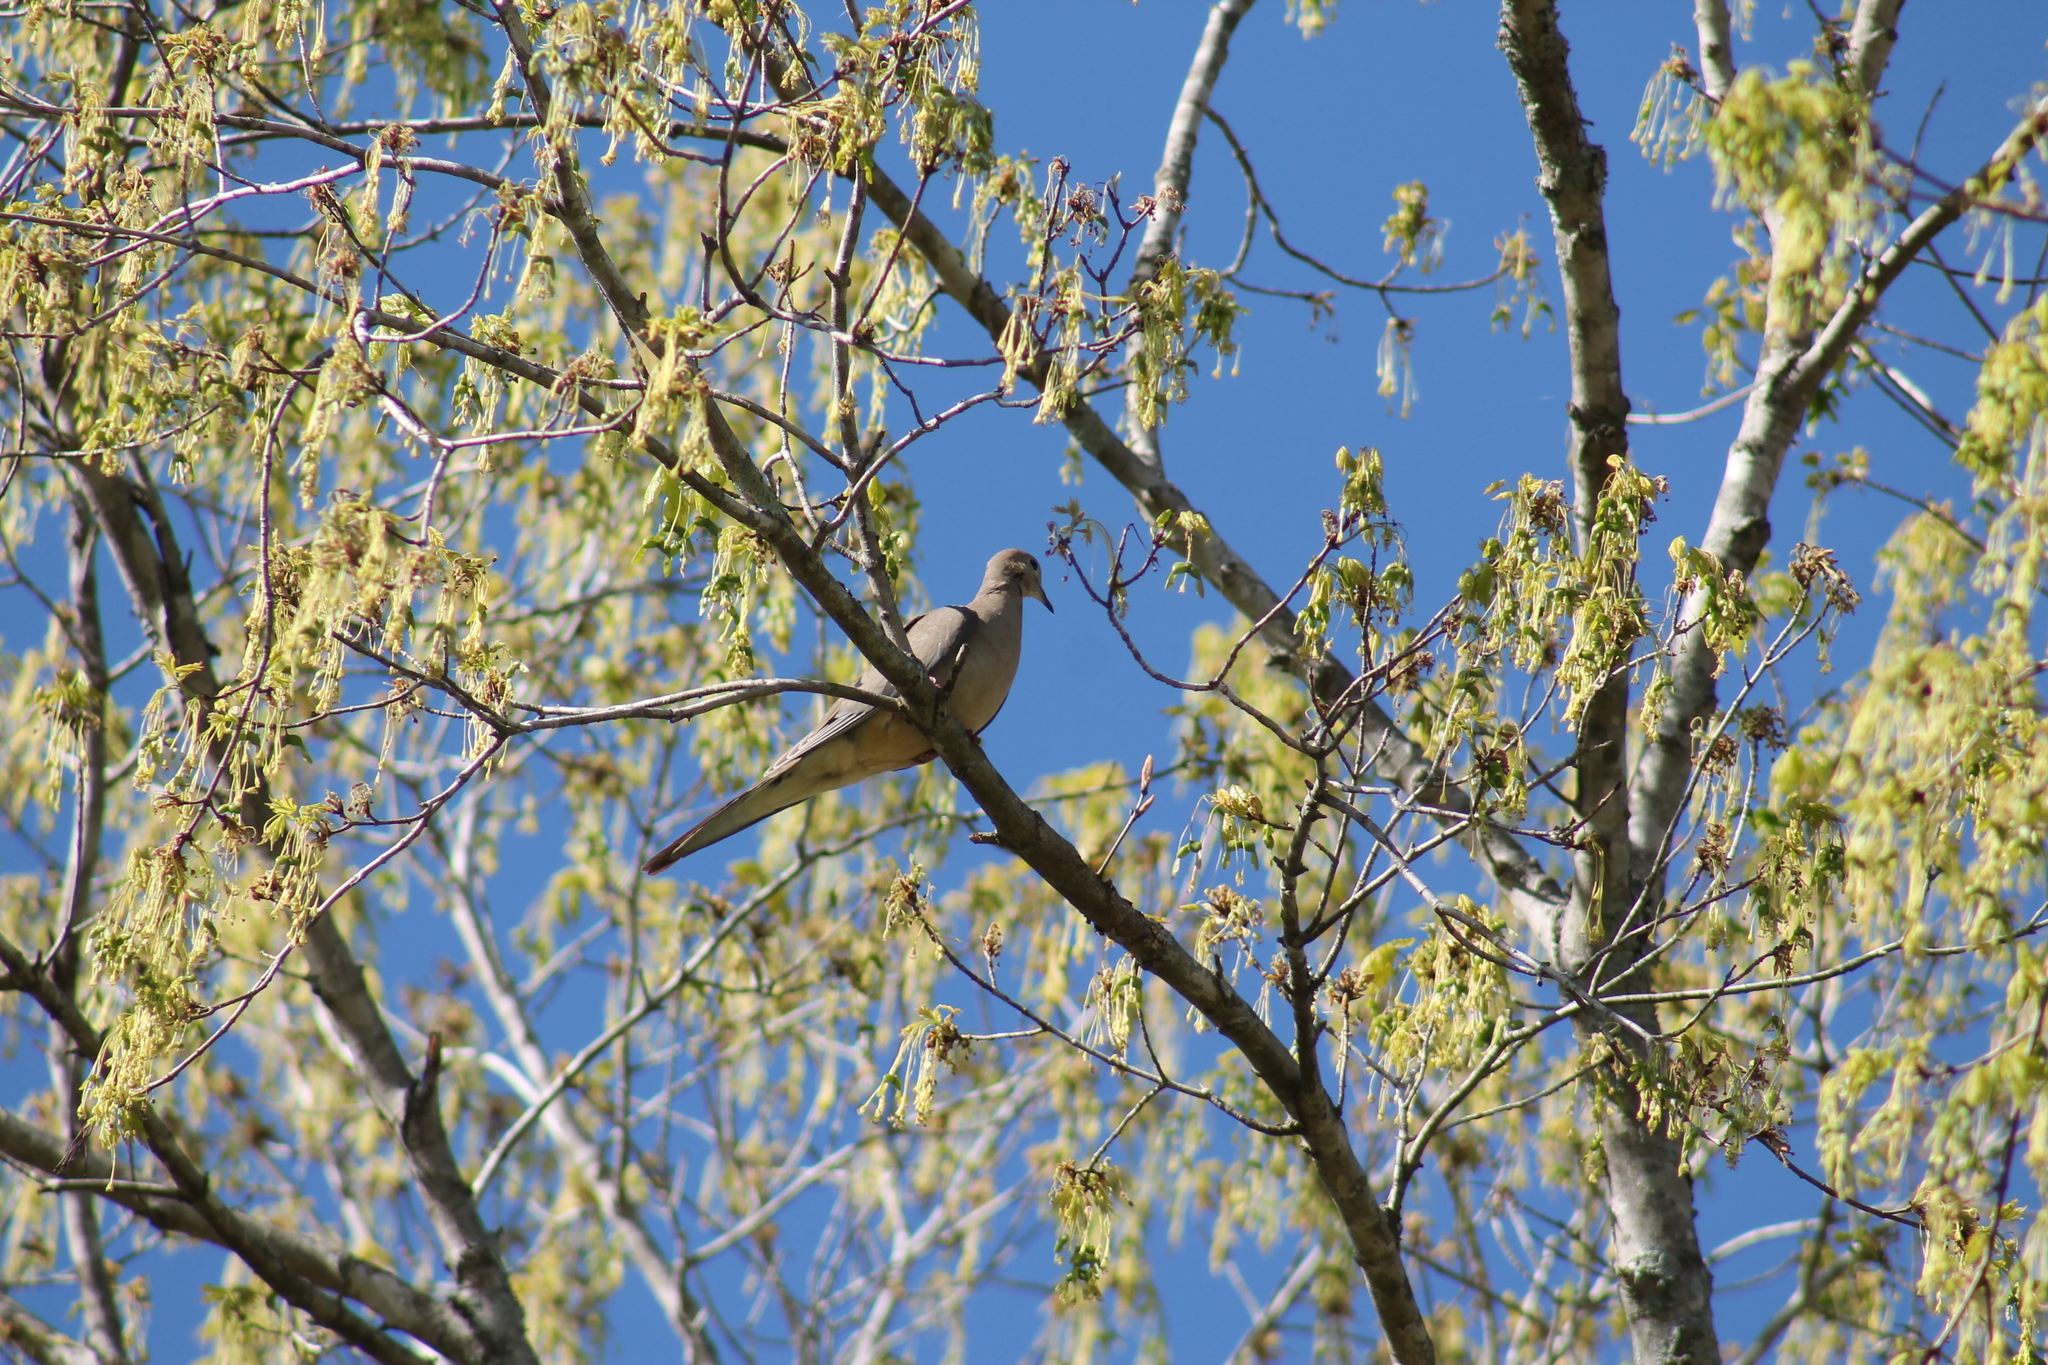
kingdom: Animalia
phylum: Chordata
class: Aves
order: Columbiformes
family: Columbidae
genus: Zenaida
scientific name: Zenaida macroura
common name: Mourning dove
